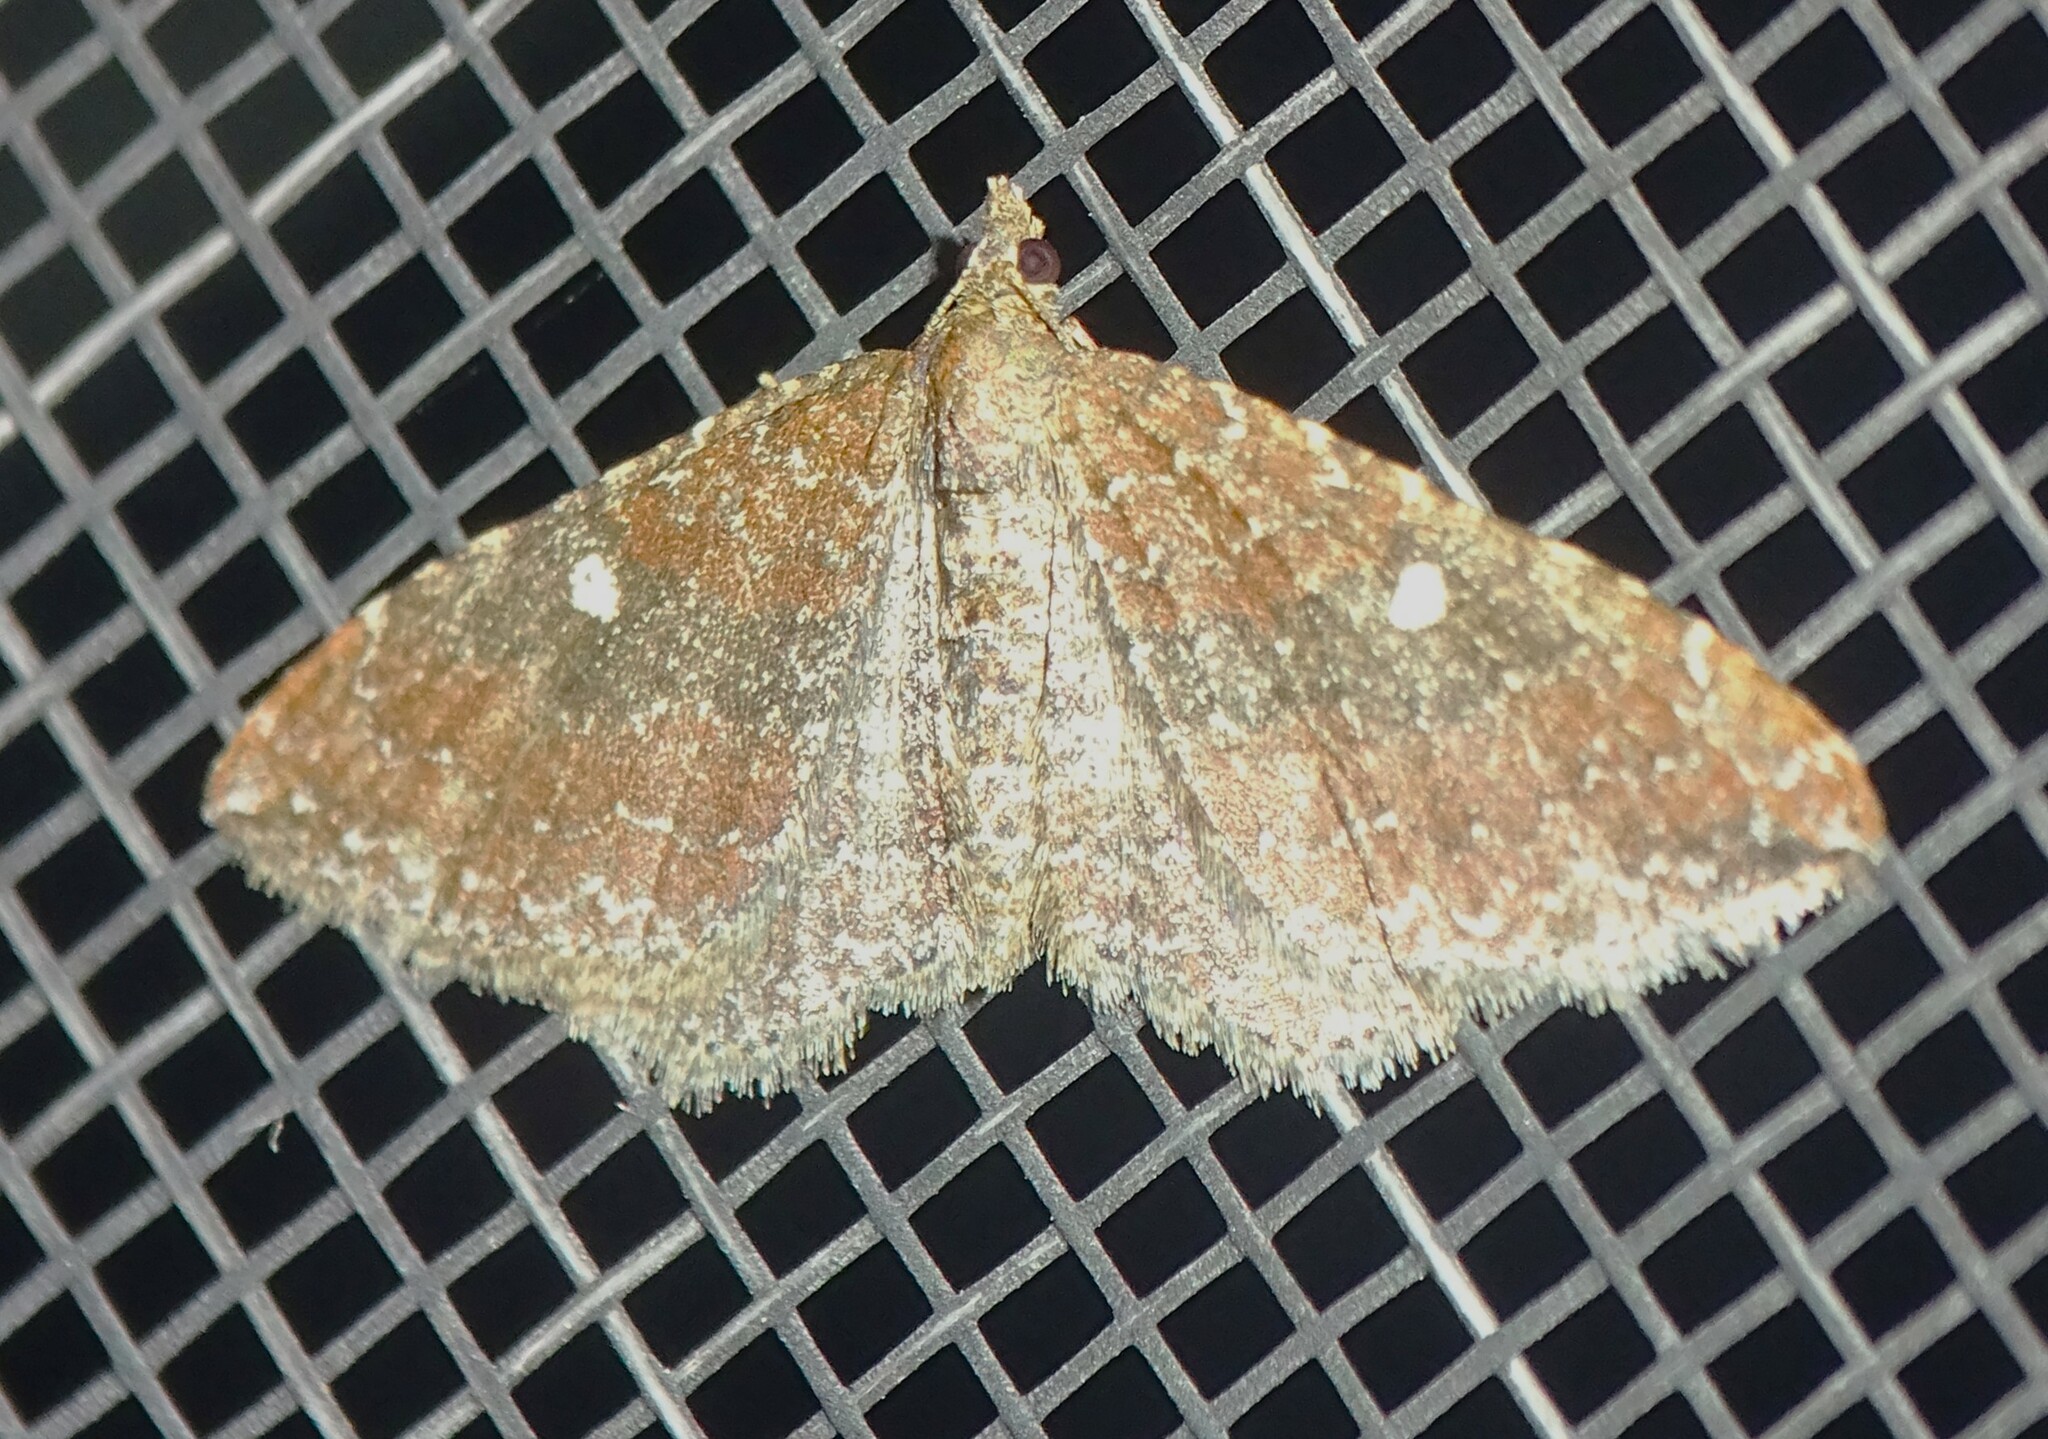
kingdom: Animalia
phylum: Arthropoda
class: Insecta
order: Lepidoptera
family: Geometridae
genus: Orthonama
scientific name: Orthonama obstipata
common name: The gem
